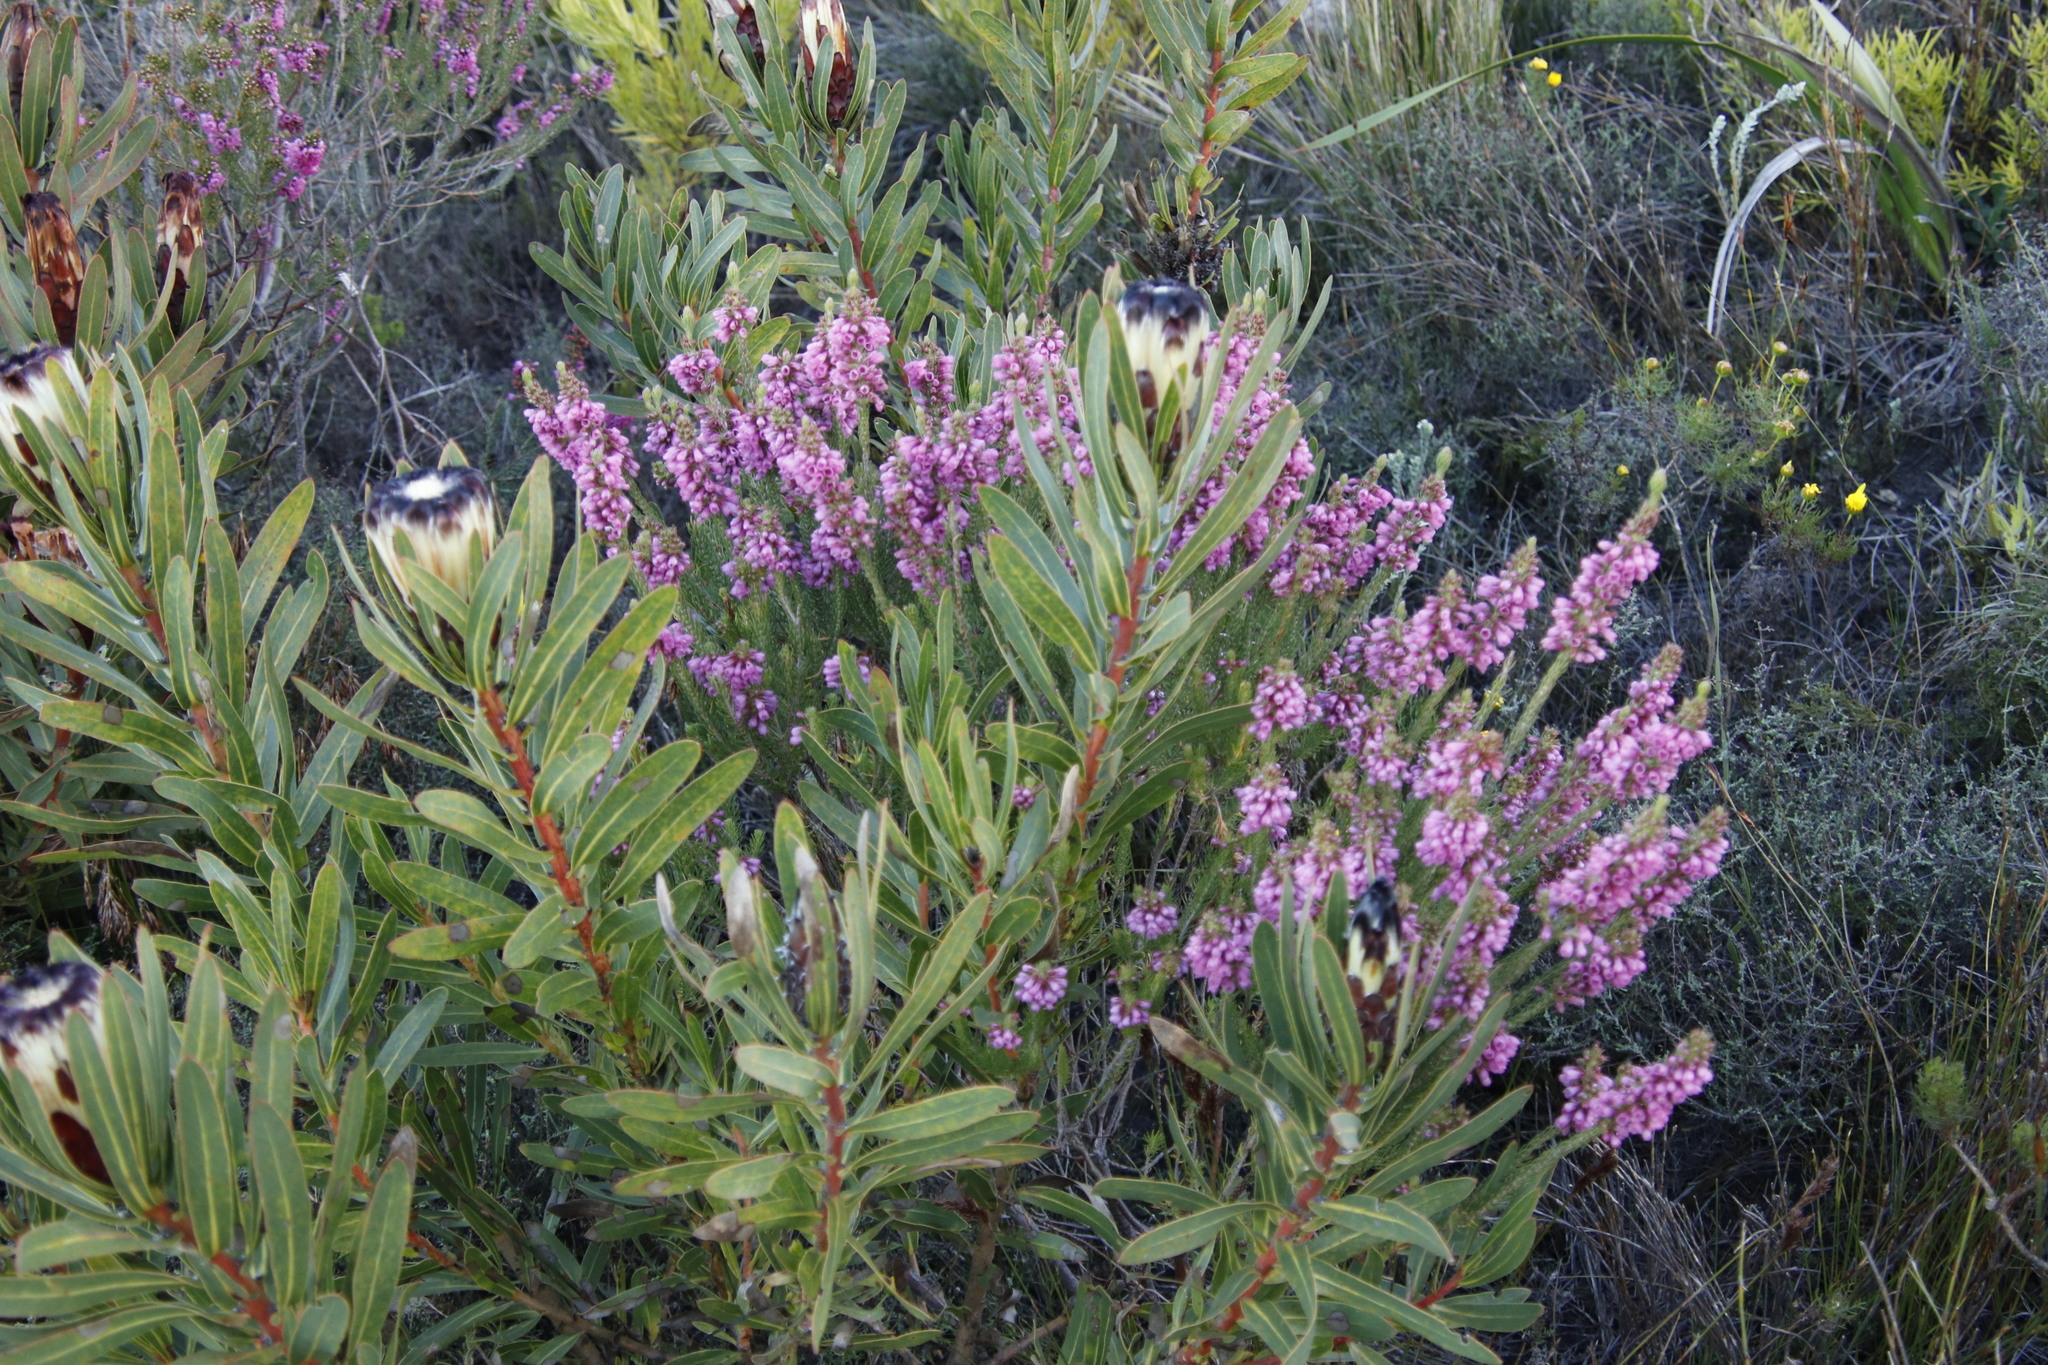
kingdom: Plantae
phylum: Tracheophyta
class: Magnoliopsida
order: Ericales
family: Ericaceae
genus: Erica
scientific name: Erica abietina
